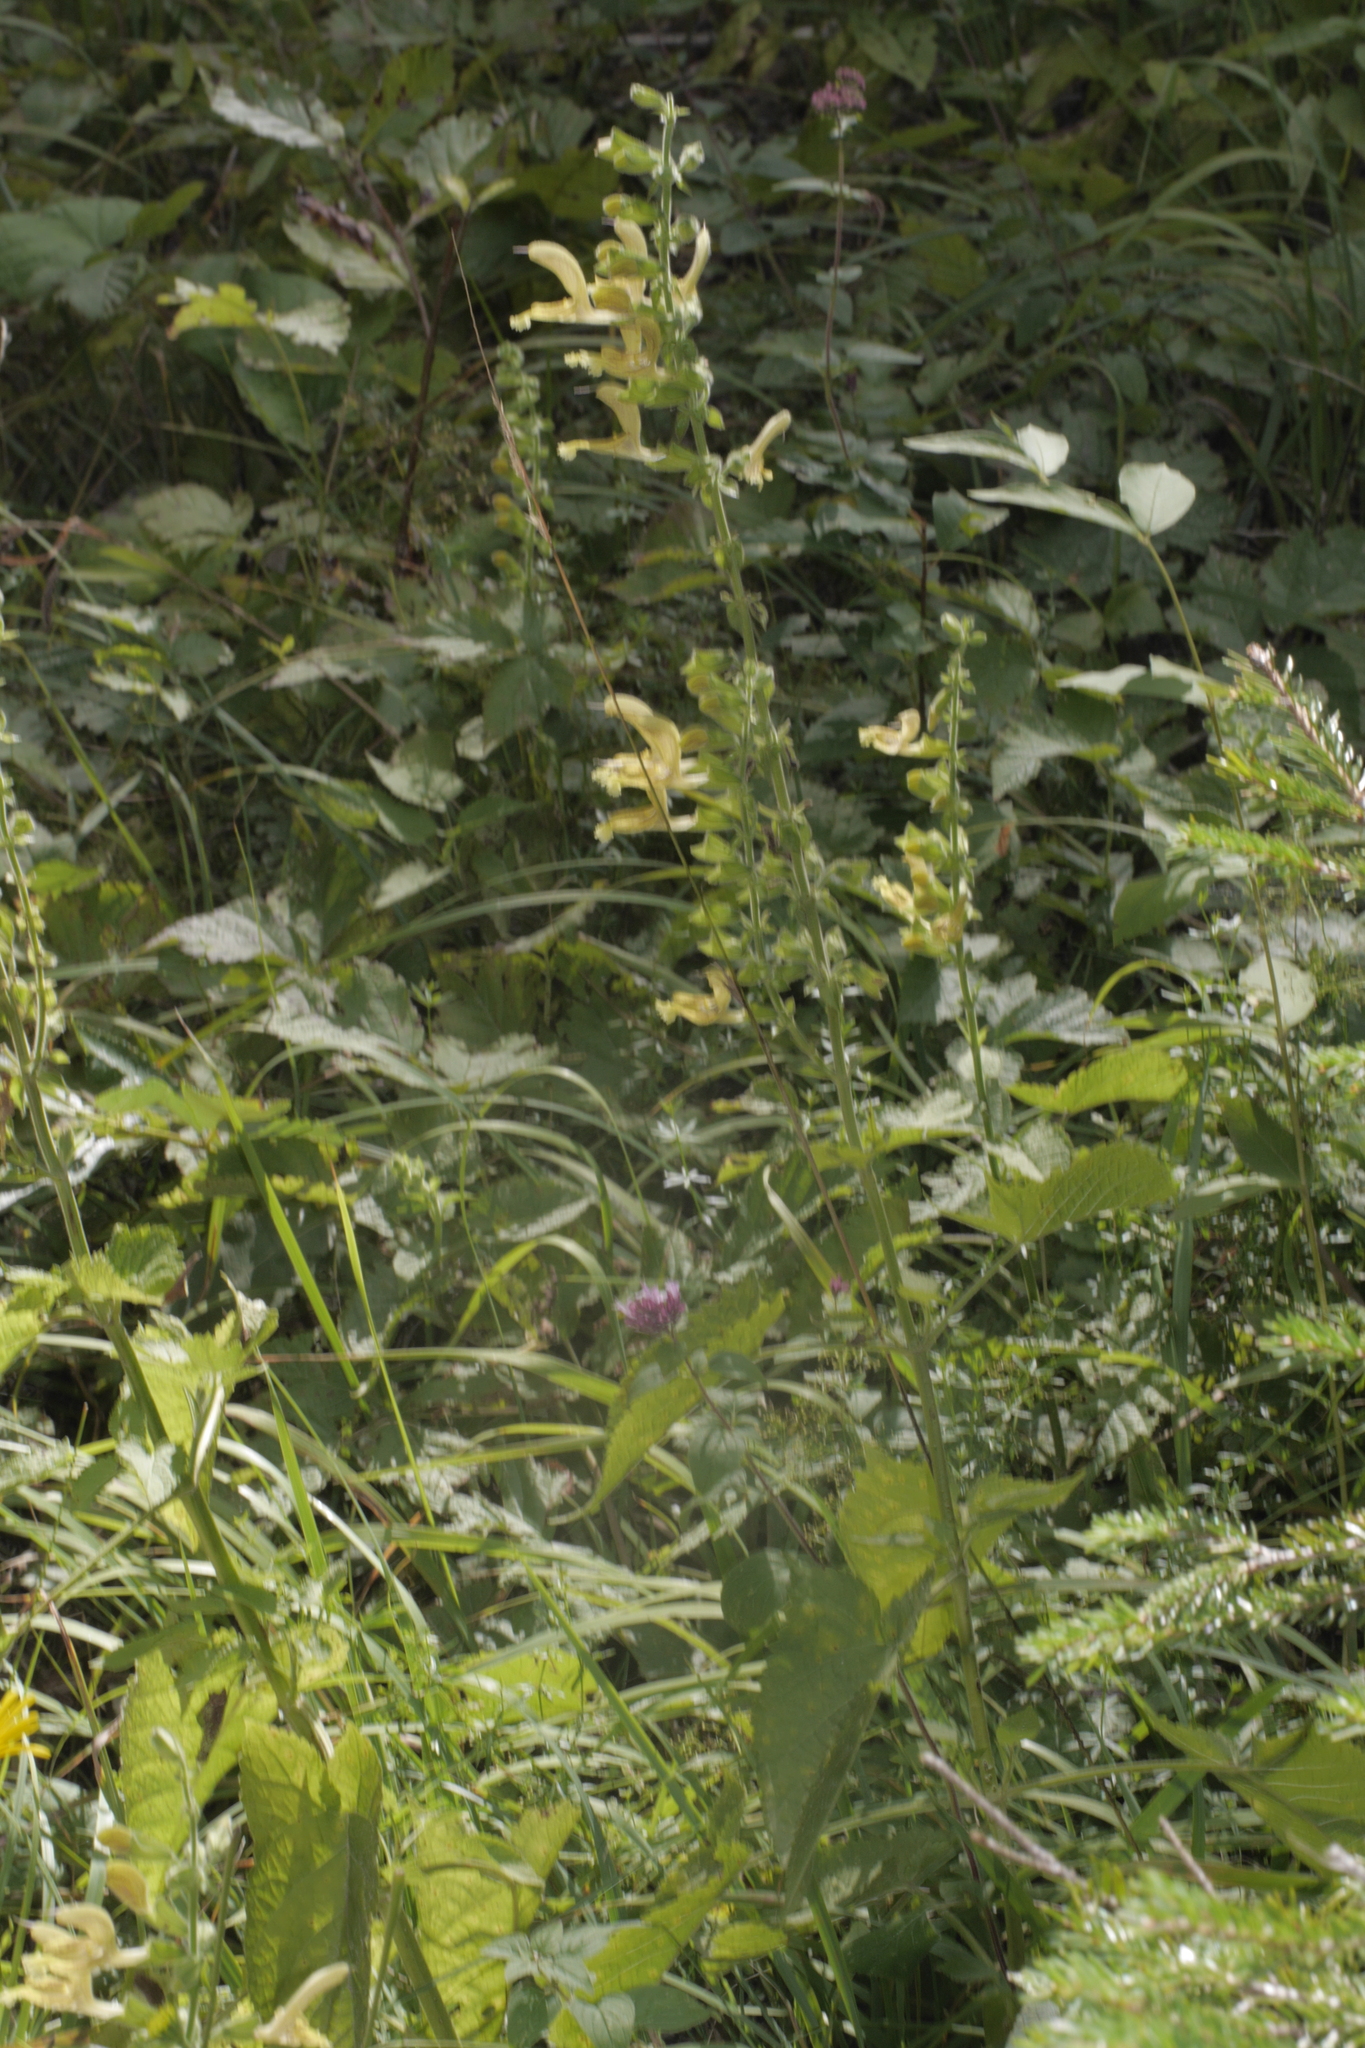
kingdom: Plantae
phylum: Tracheophyta
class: Magnoliopsida
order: Lamiales
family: Lamiaceae
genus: Salvia
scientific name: Salvia glutinosa
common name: Sticky clary
